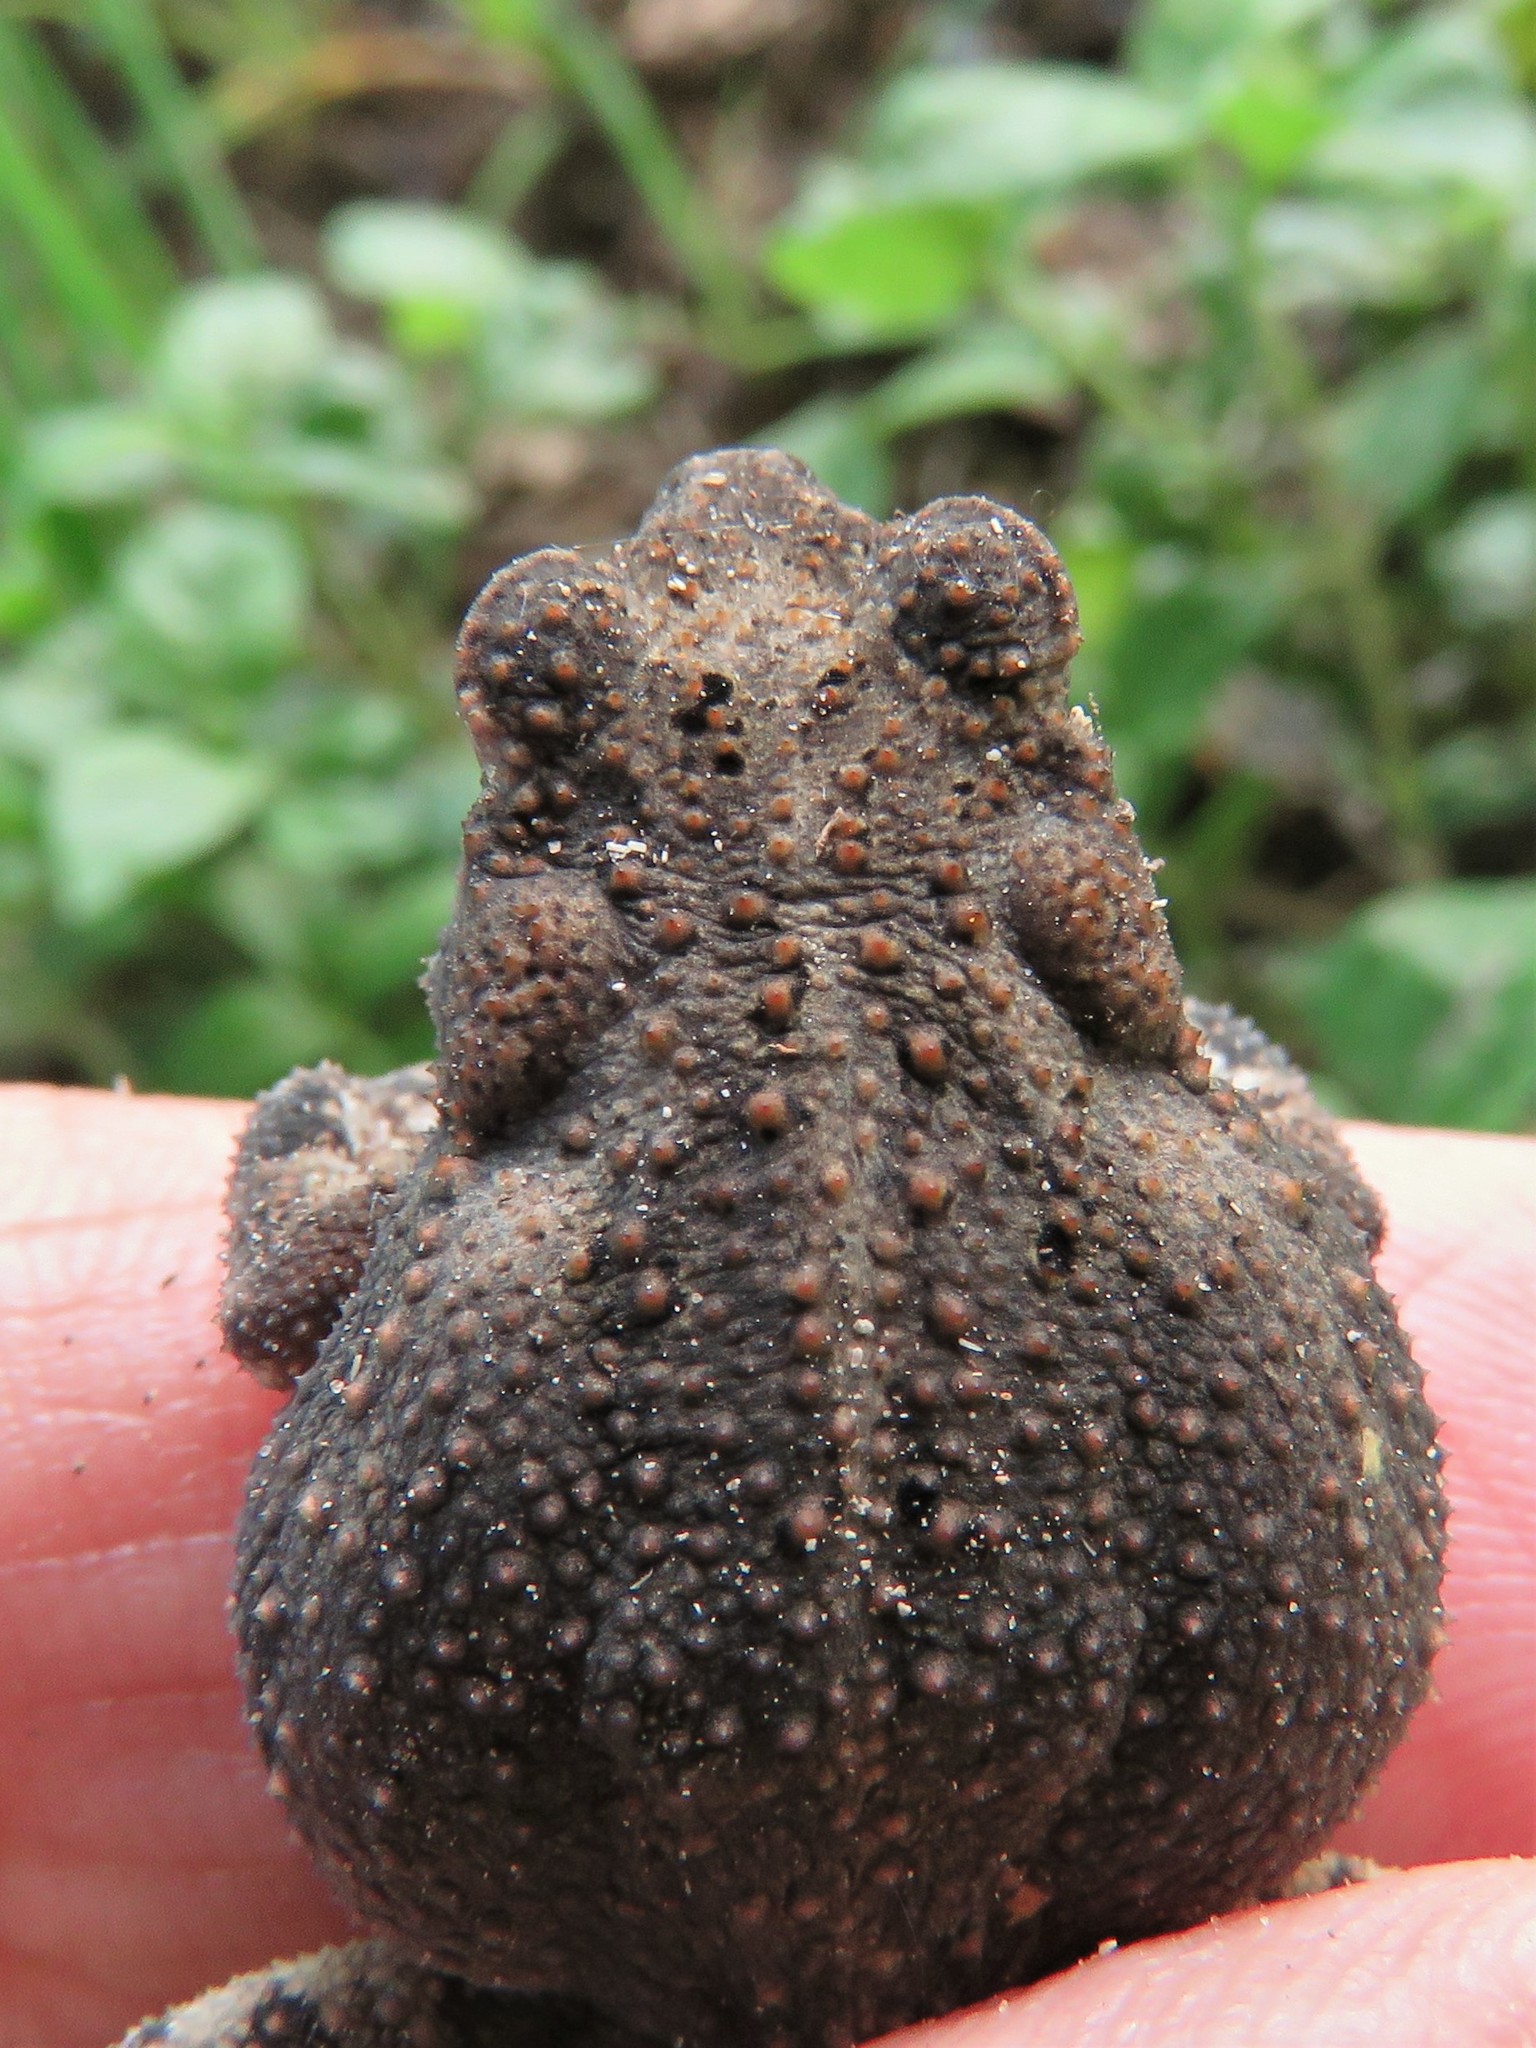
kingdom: Animalia
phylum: Chordata
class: Amphibia
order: Anura
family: Bufonidae
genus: Incilius
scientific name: Incilius nebulifer
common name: Gulf coast toad
